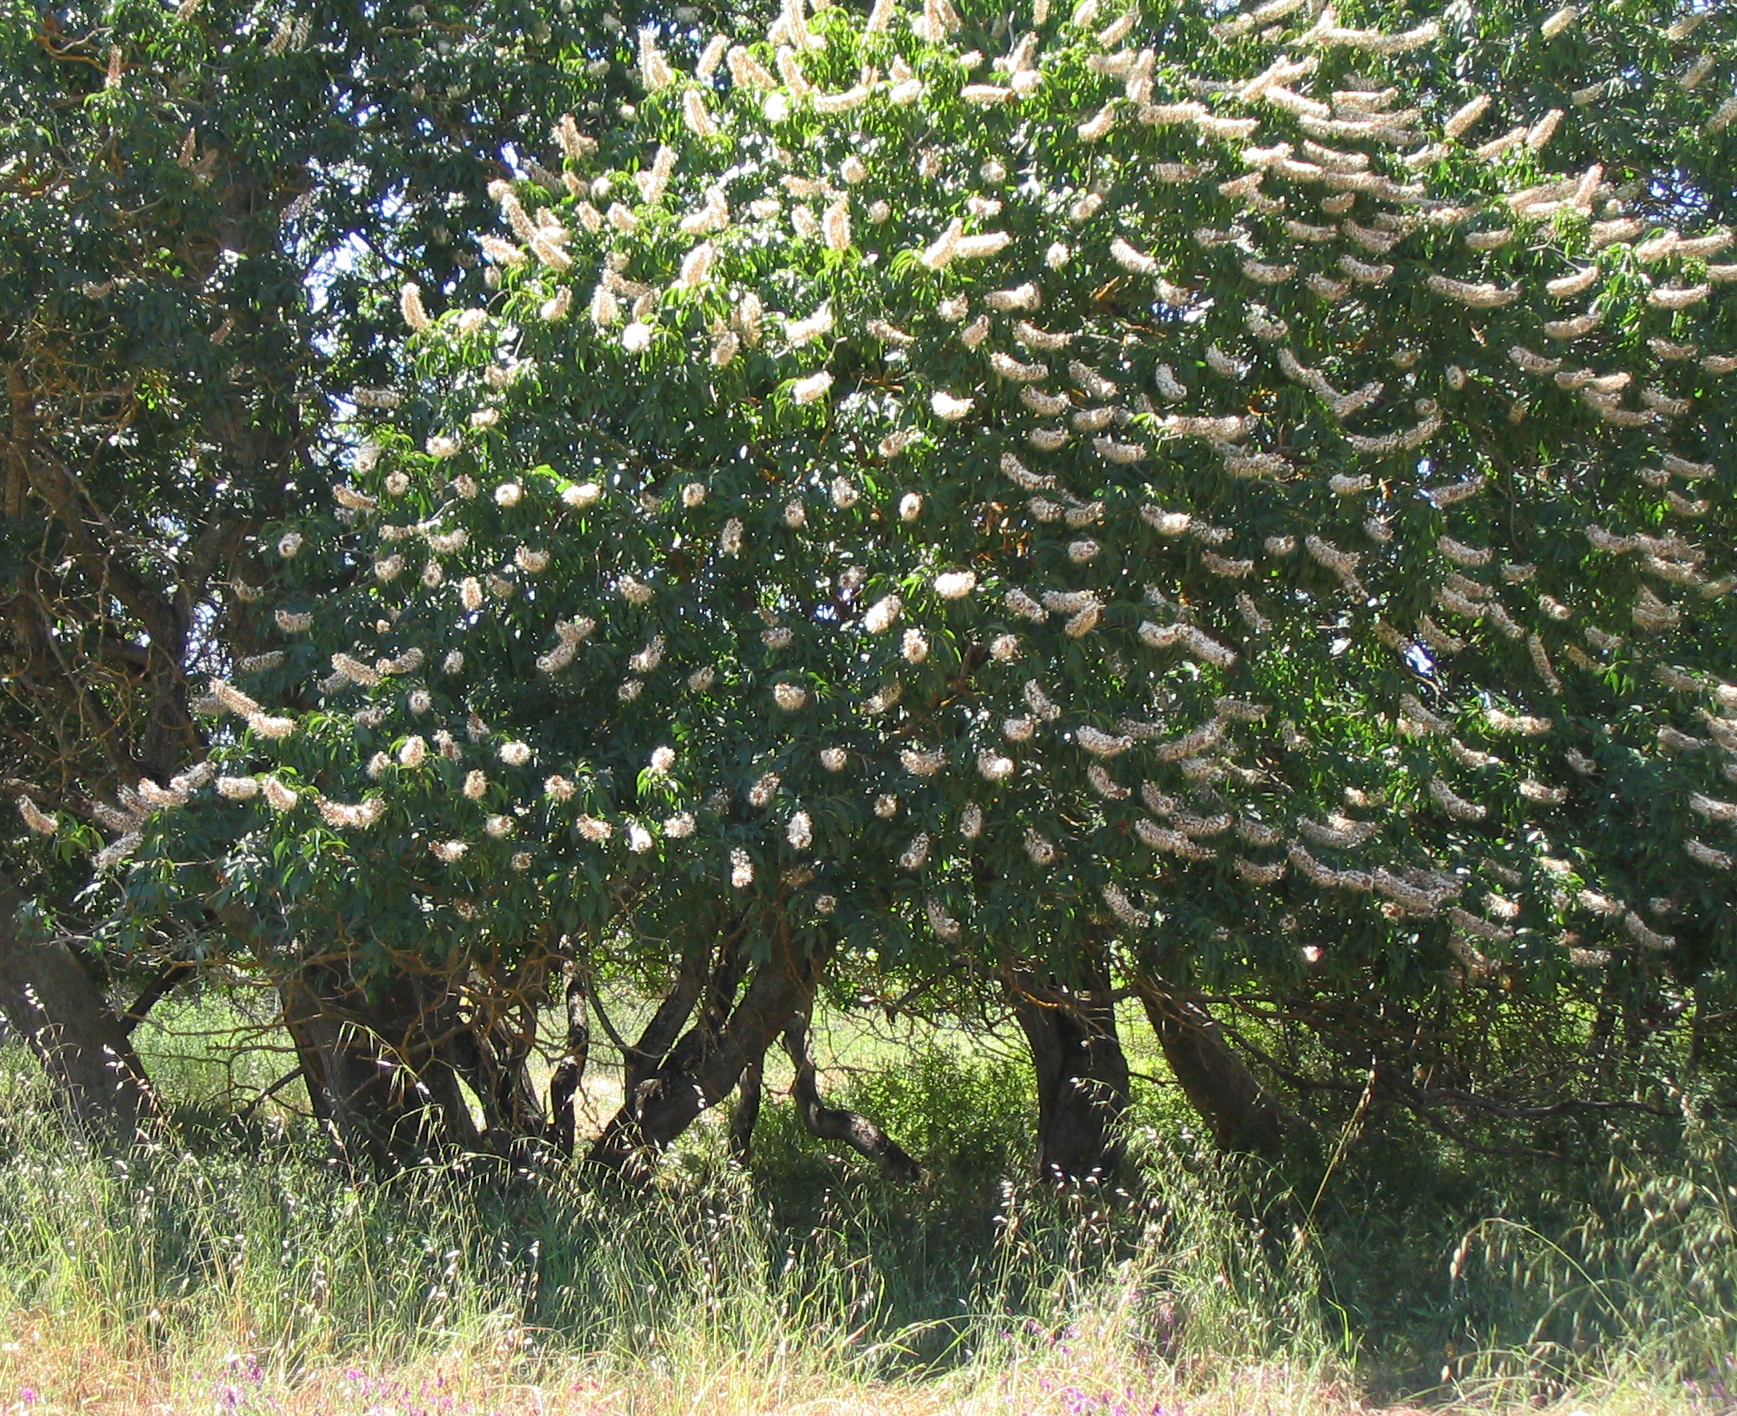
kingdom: Plantae
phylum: Tracheophyta
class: Magnoliopsida
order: Sapindales
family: Sapindaceae
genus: Aesculus
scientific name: Aesculus californica
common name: California buckeye
